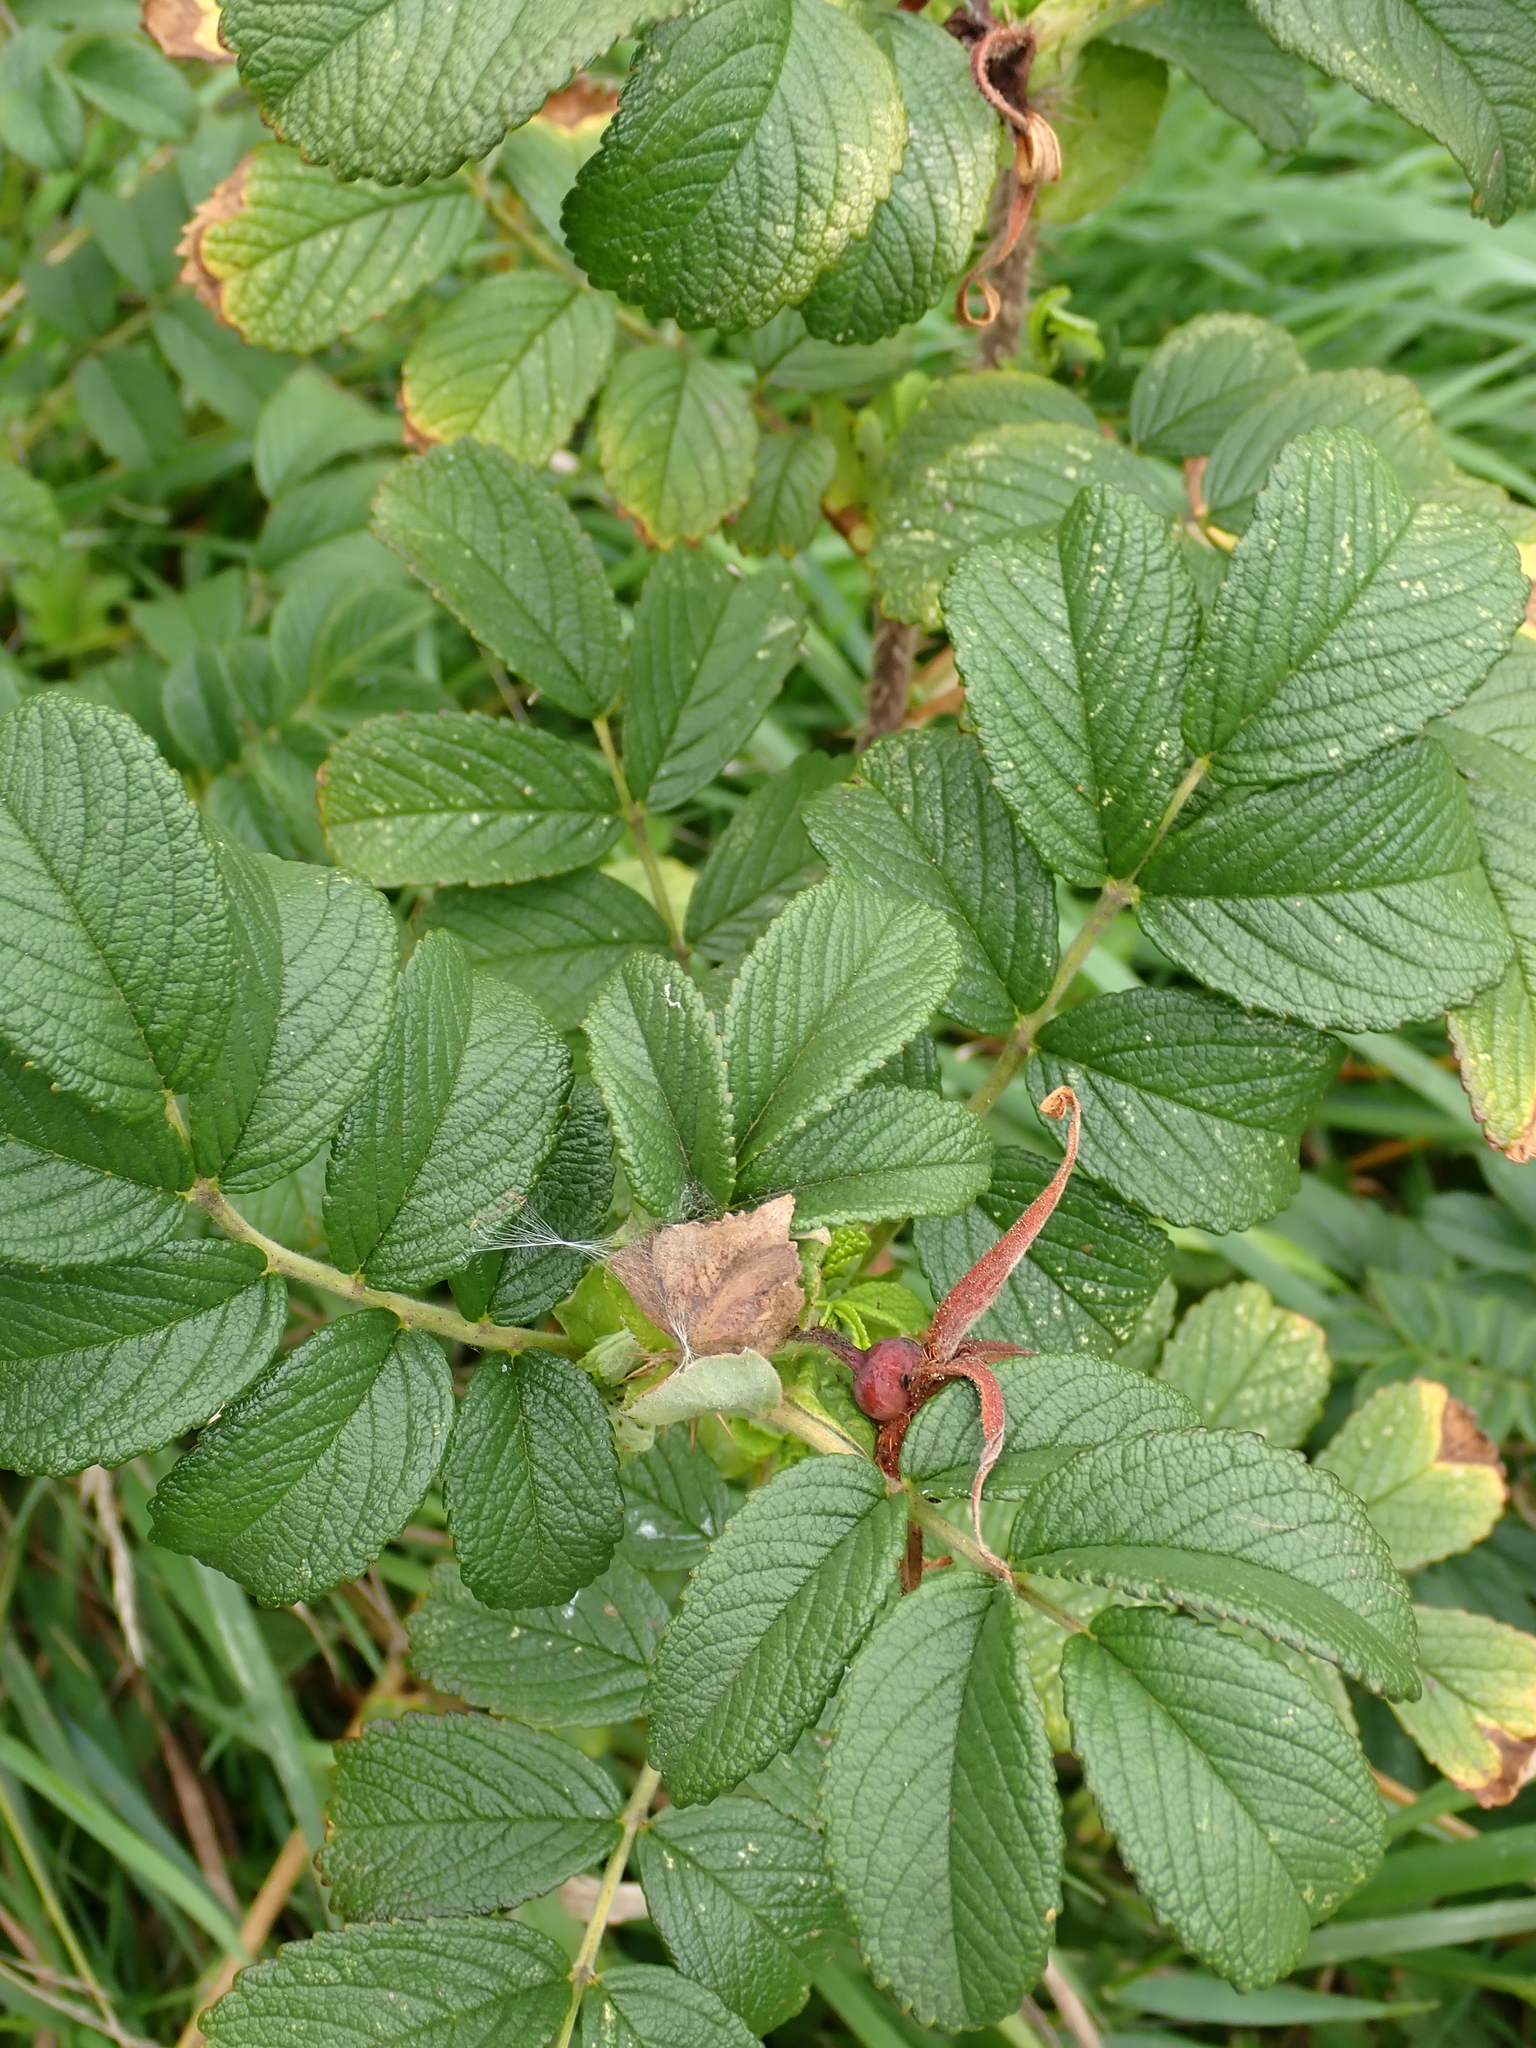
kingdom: Plantae
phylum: Tracheophyta
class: Magnoliopsida
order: Rosales
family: Rosaceae
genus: Rosa
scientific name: Rosa rugosa
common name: Japanese rose
